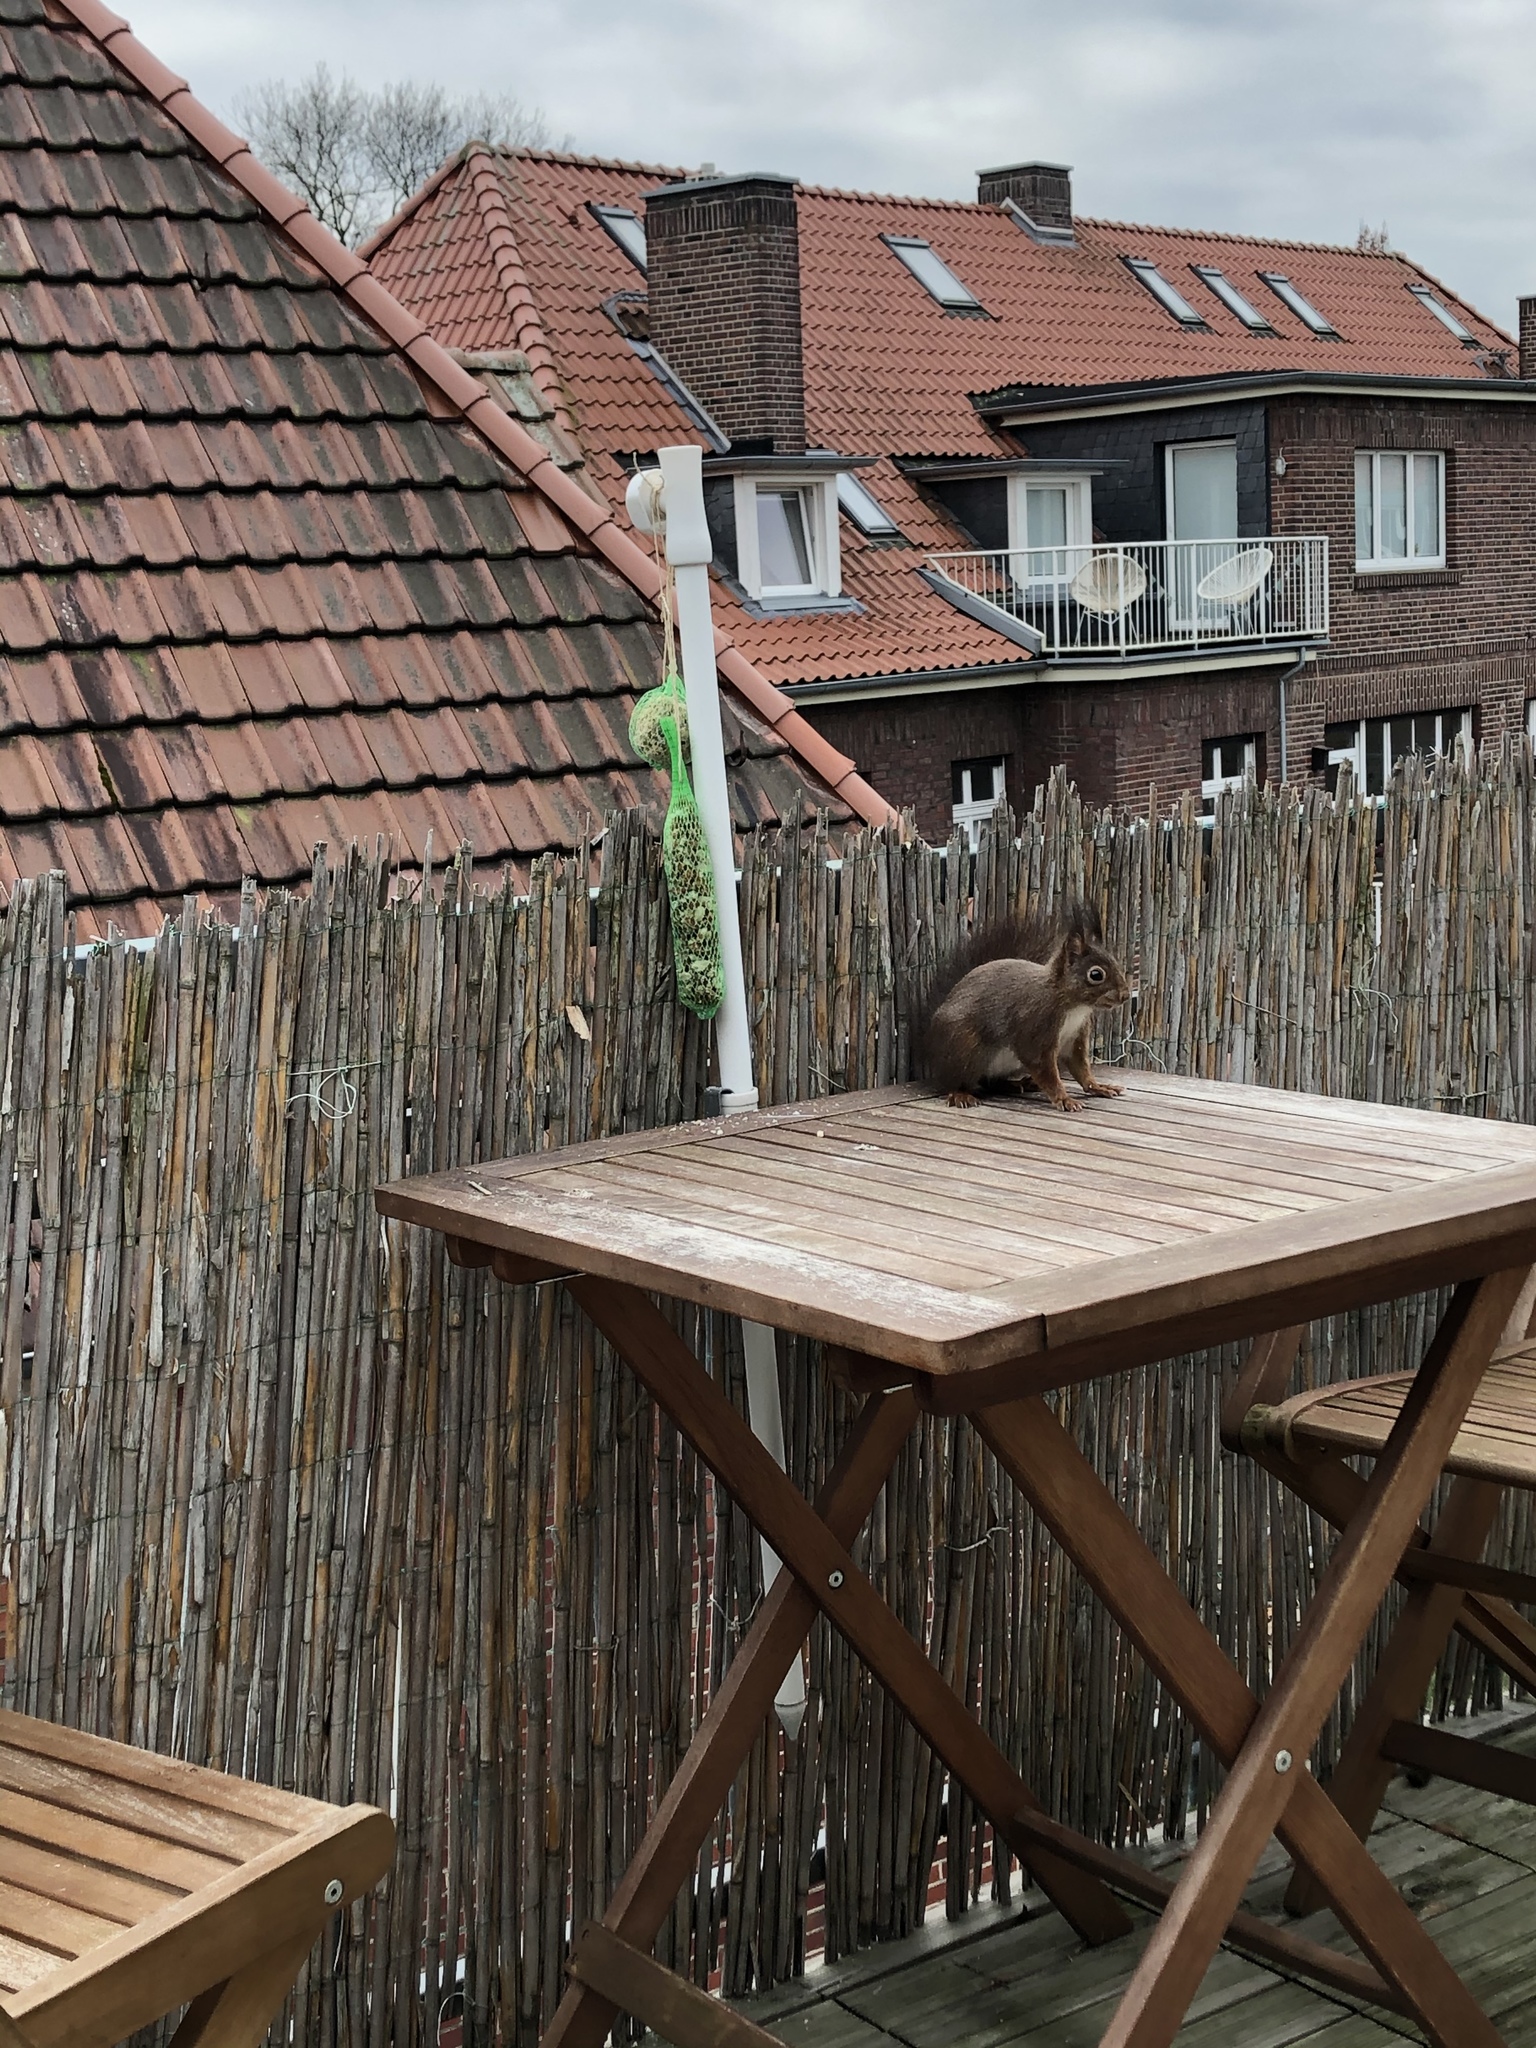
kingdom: Animalia
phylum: Chordata
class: Mammalia
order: Rodentia
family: Sciuridae
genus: Sciurus
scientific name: Sciurus vulgaris
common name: Eurasian red squirrel
